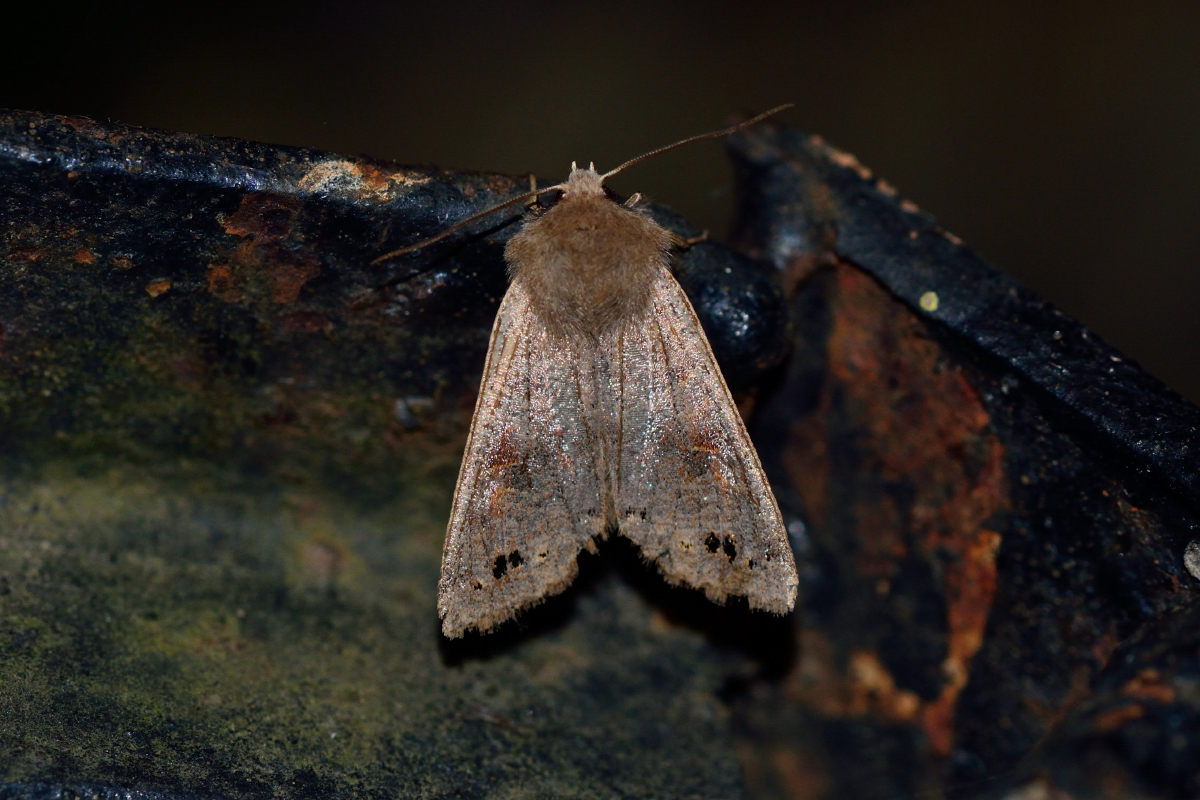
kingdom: Animalia
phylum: Arthropoda
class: Insecta
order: Lepidoptera
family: Noctuidae
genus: Anorthoa
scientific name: Anorthoa munda
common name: Twin-spotted quaker
